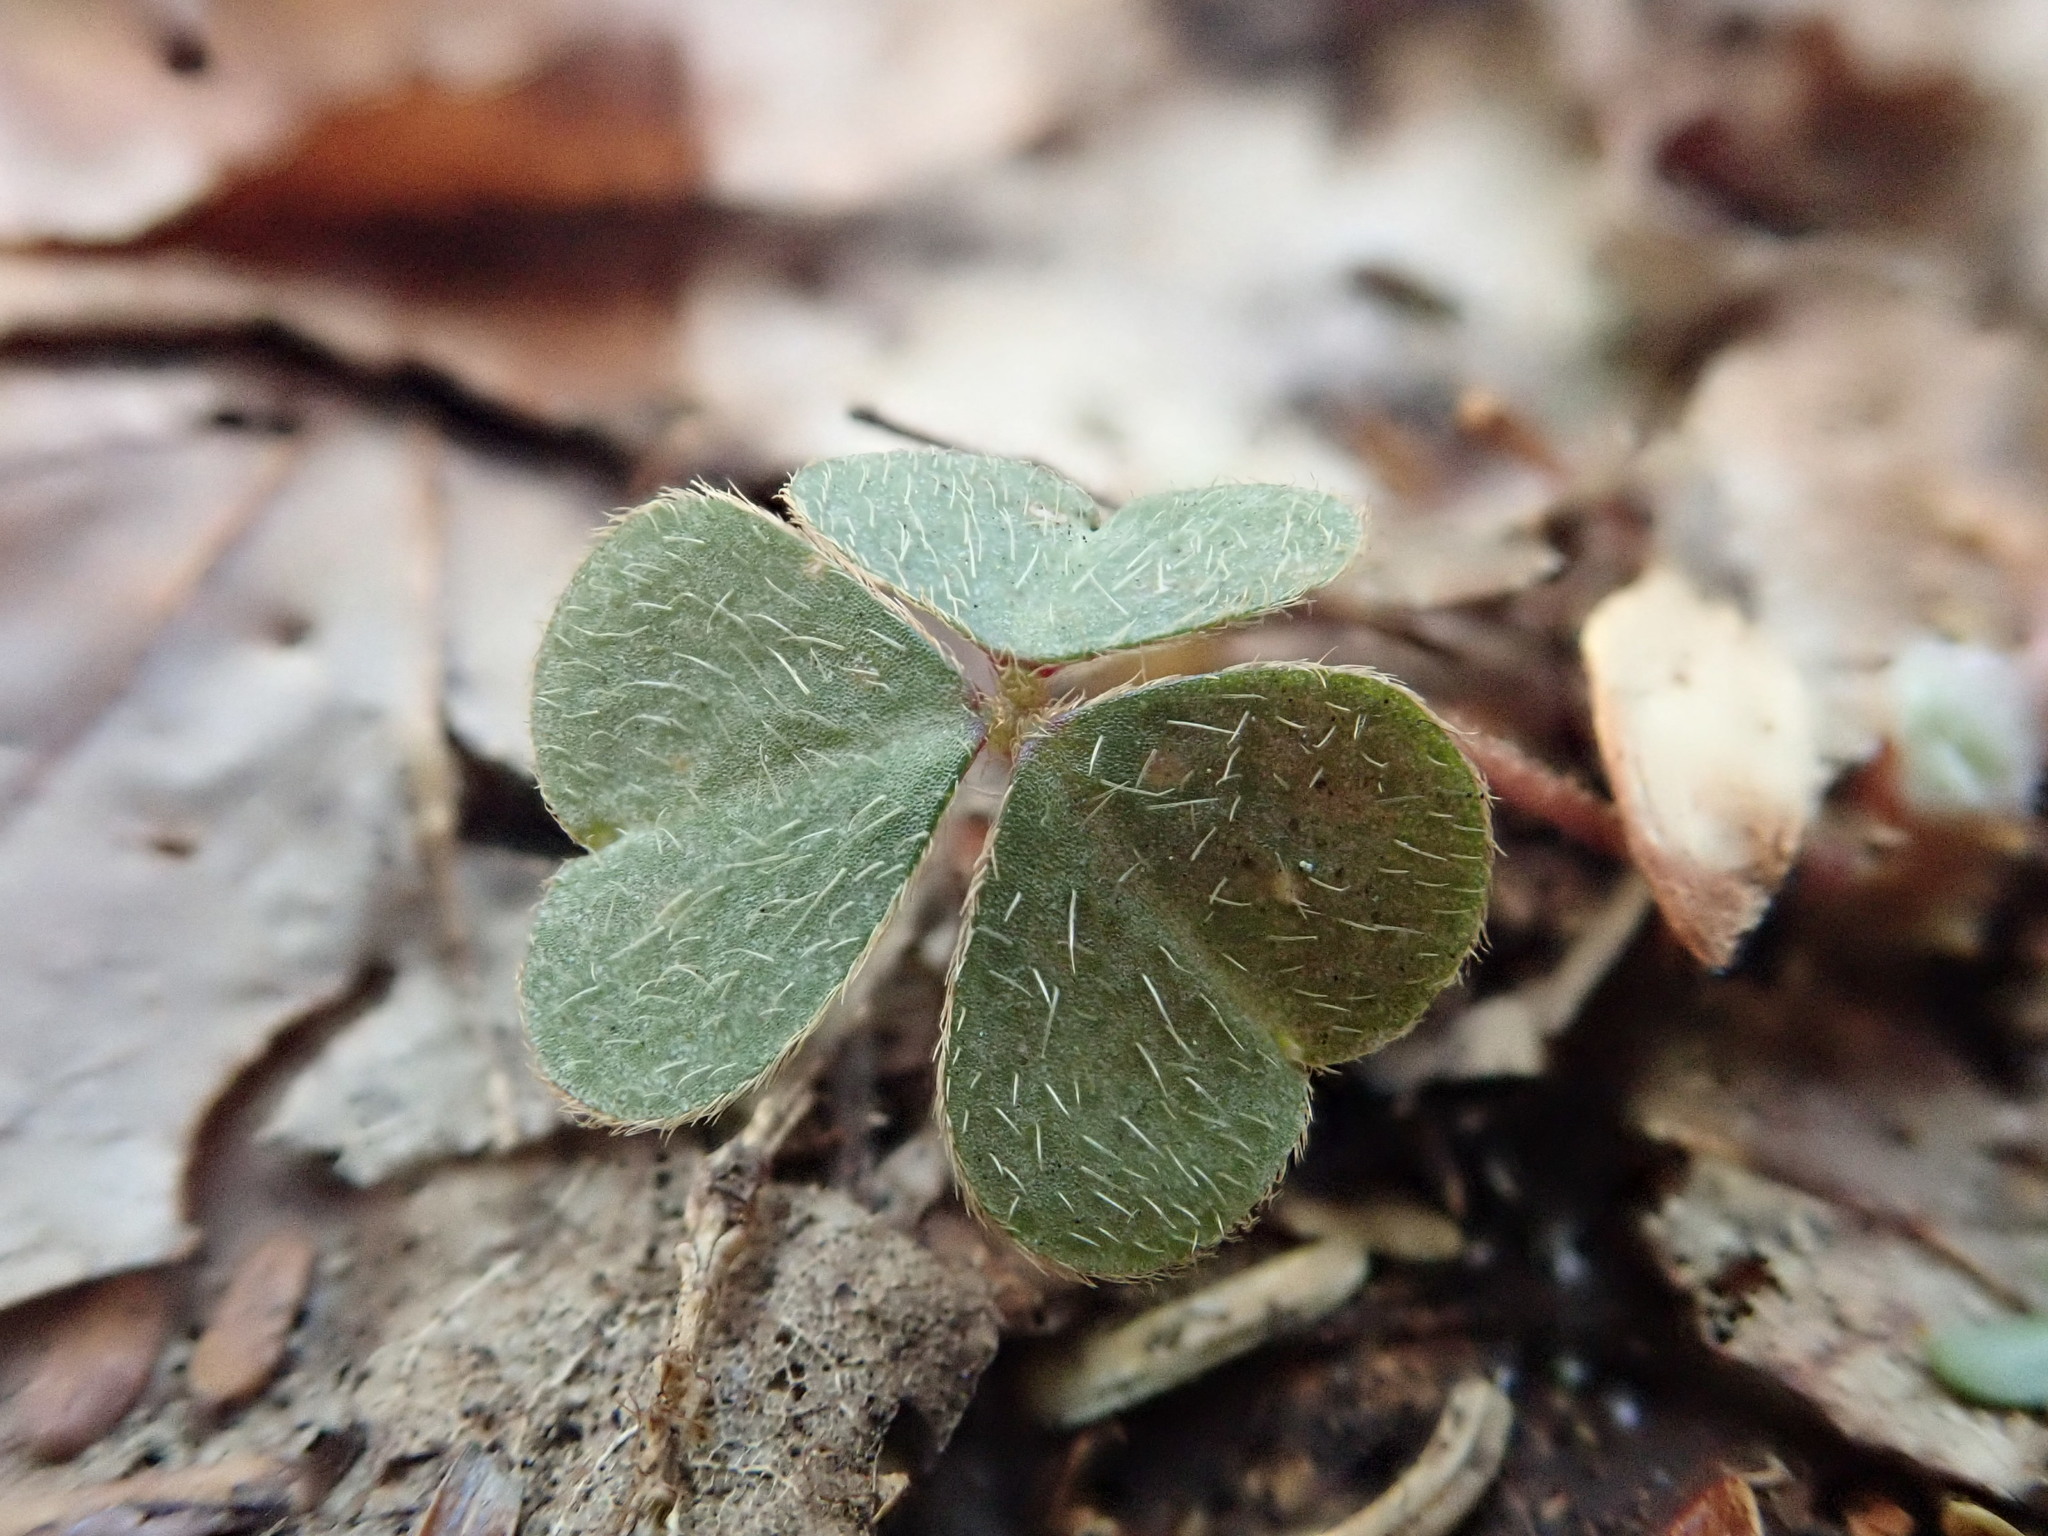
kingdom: Plantae
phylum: Tracheophyta
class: Magnoliopsida
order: Oxalidales
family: Oxalidaceae
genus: Oxalis
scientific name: Oxalis montana
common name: American wood-sorrel
